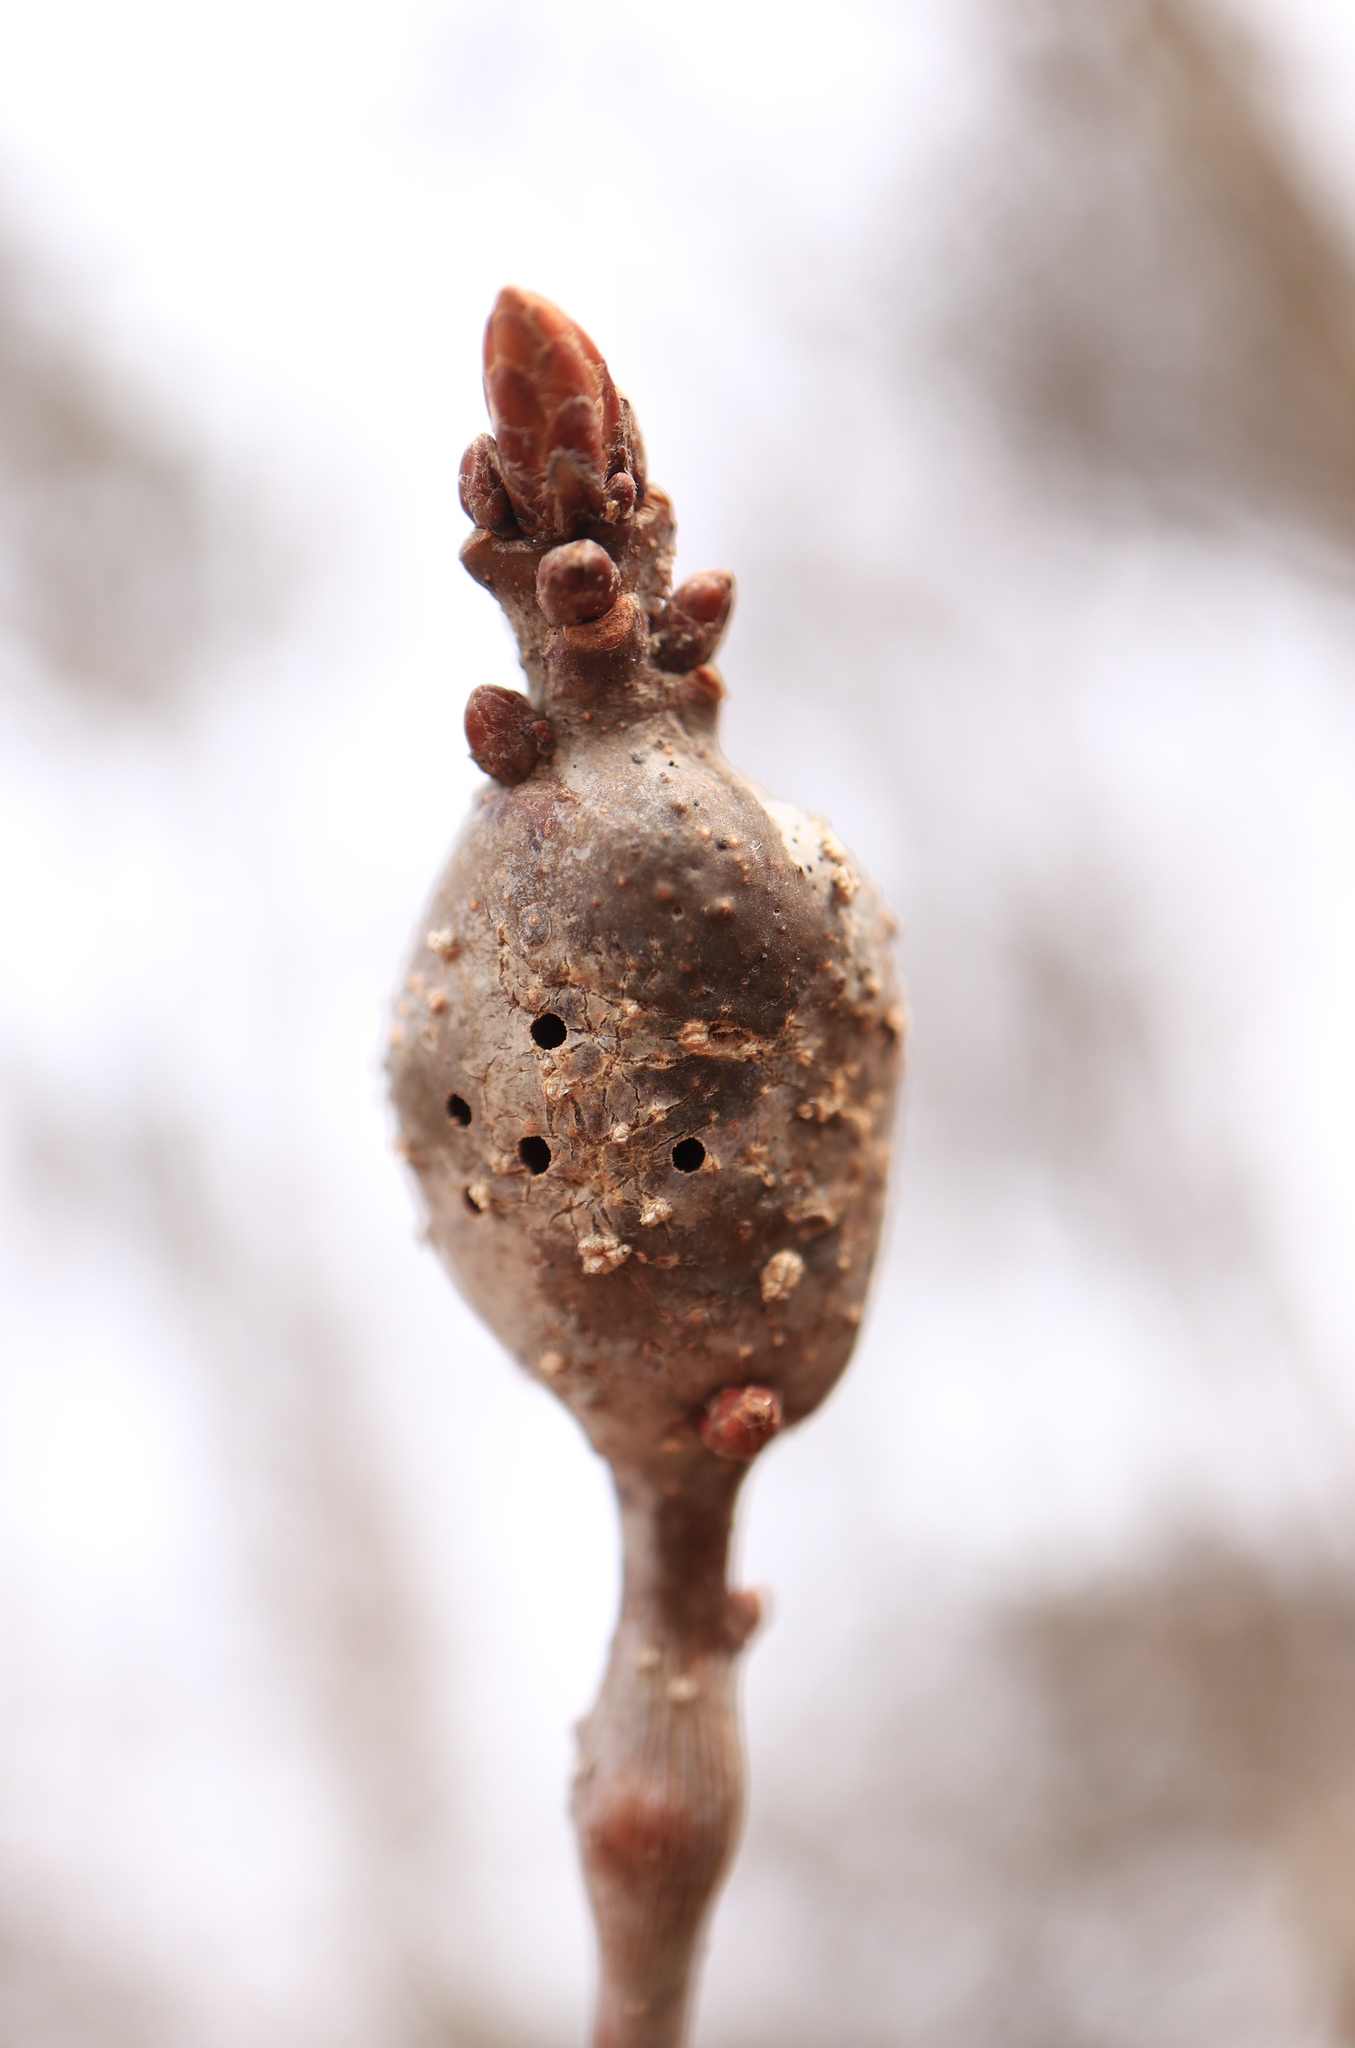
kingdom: Animalia
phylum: Arthropoda
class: Insecta
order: Hymenoptera
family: Cynipidae
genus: Neuroterus
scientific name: Neuroterus quercusbaccarum
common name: Common spangle gall
